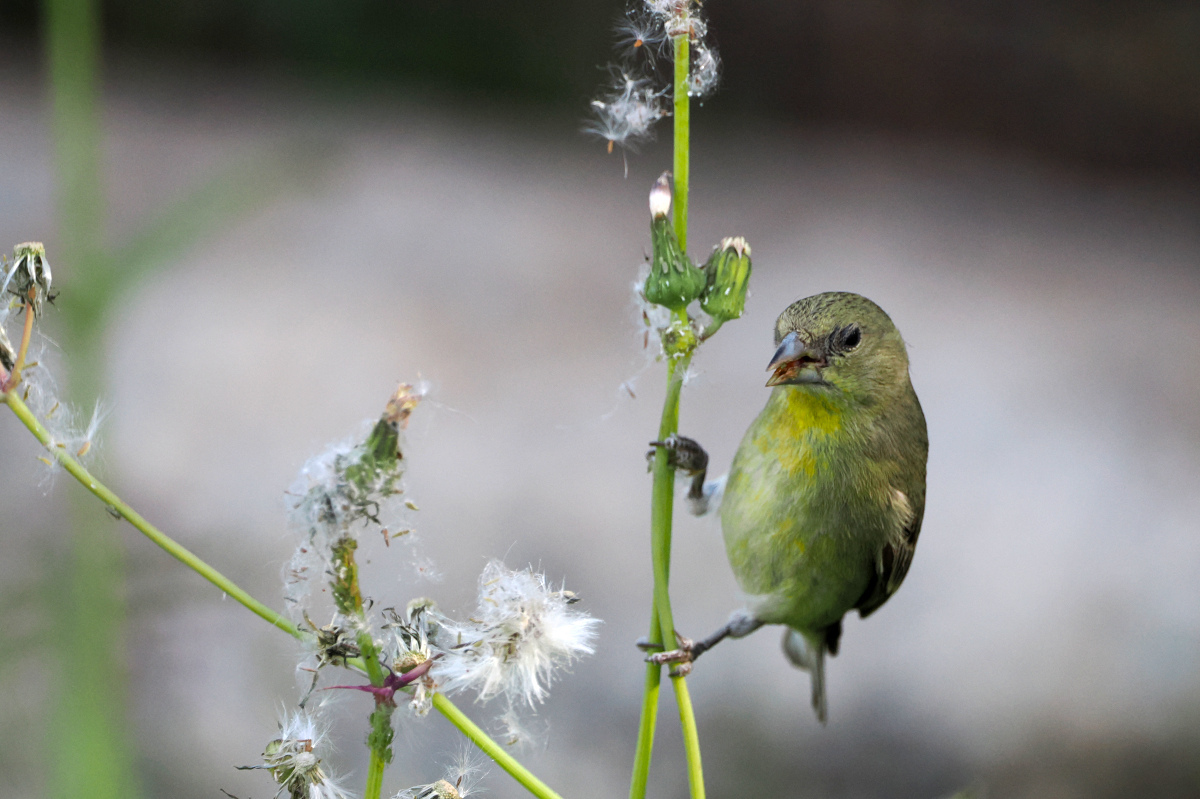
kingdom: Animalia
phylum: Chordata
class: Aves
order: Passeriformes
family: Fringillidae
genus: Spinus
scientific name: Spinus psaltria
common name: Lesser goldfinch
